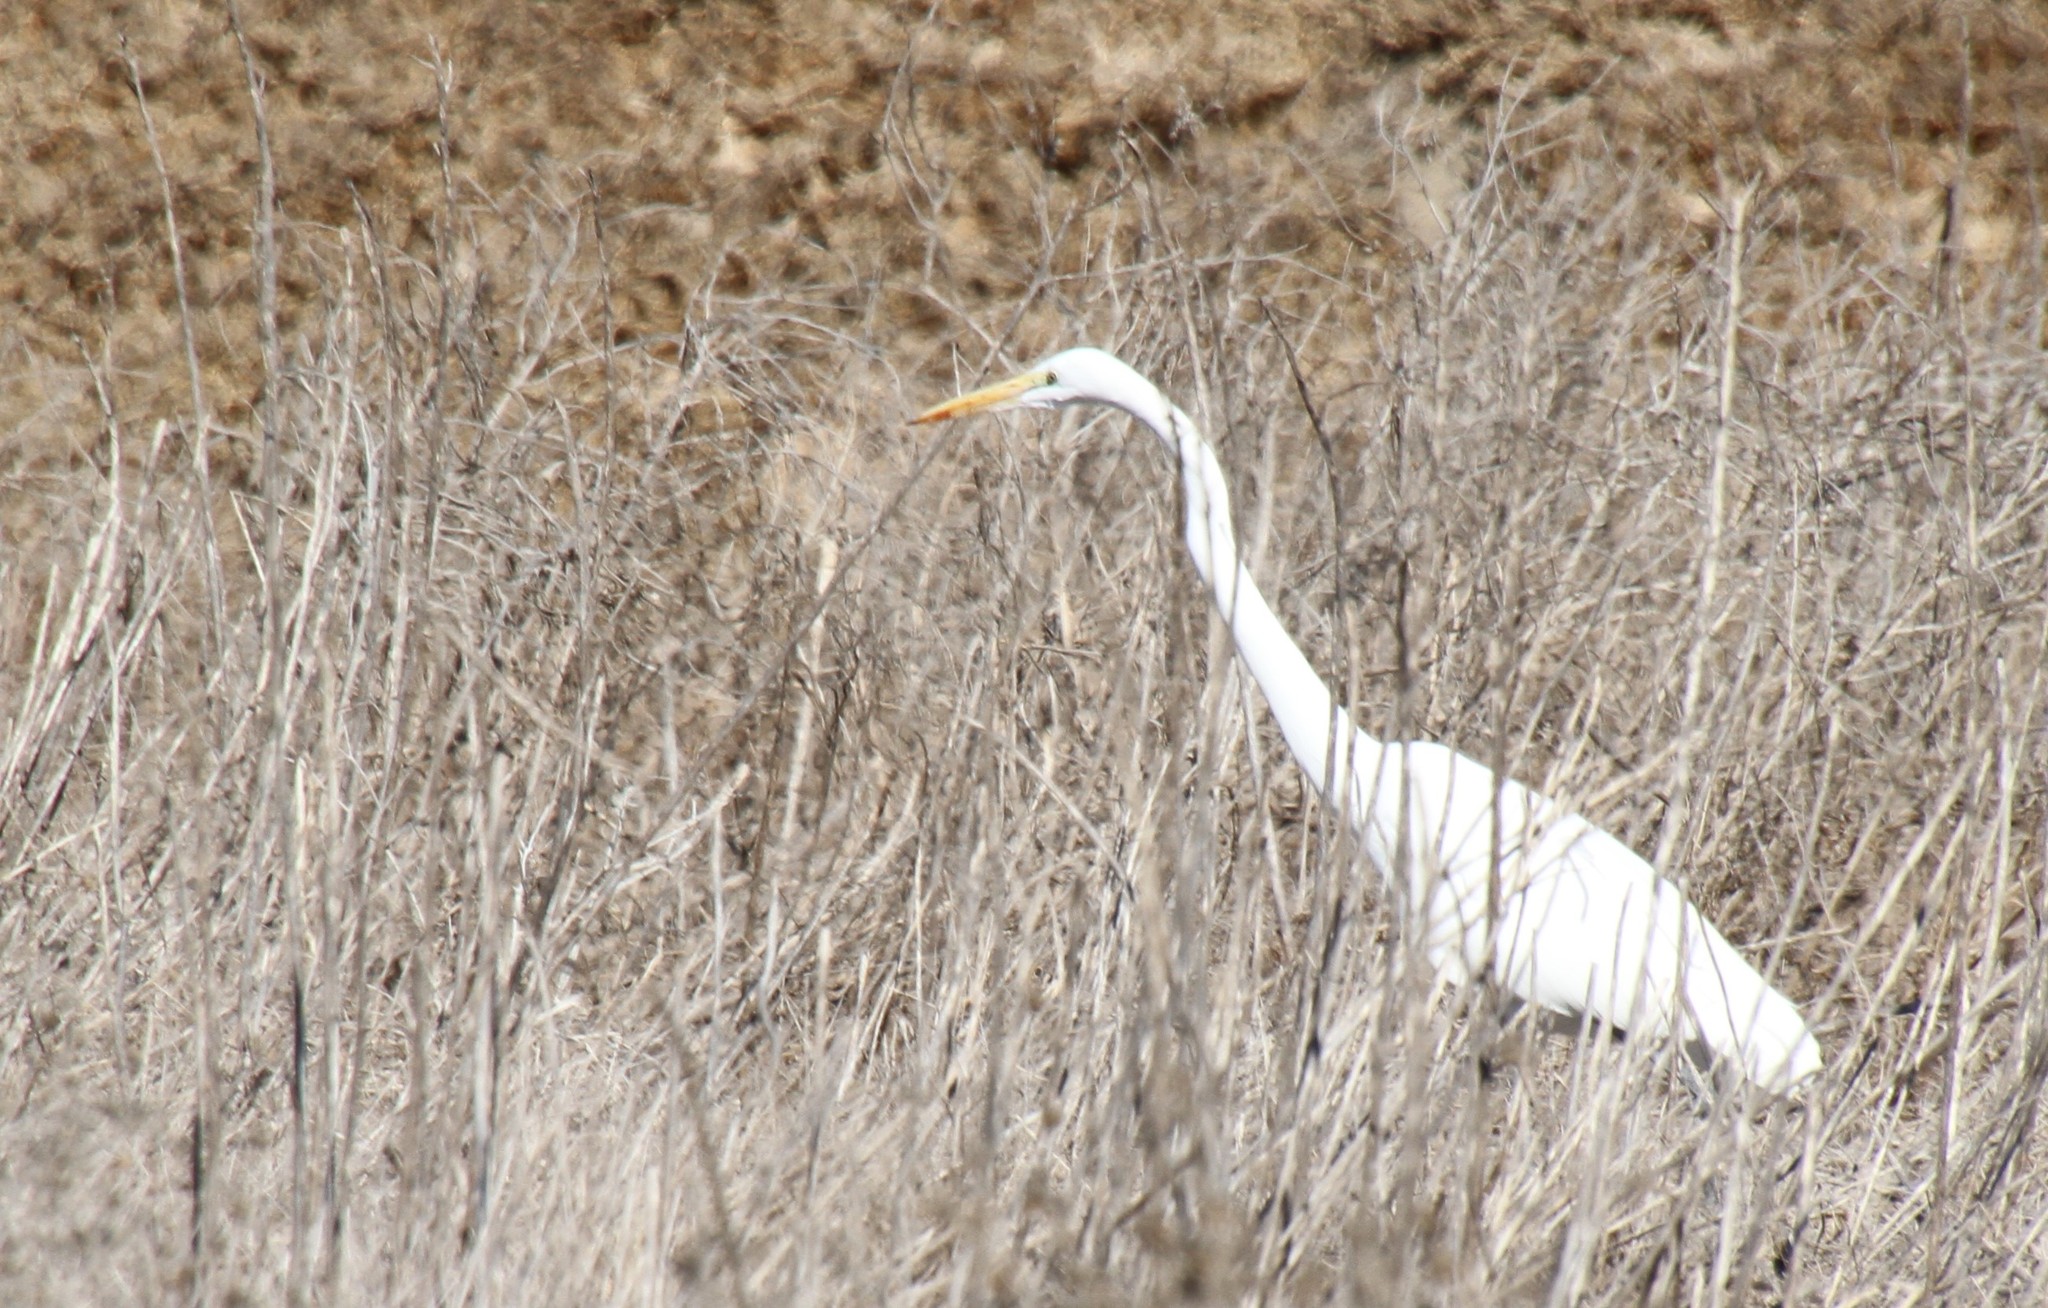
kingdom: Animalia
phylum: Chordata
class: Aves
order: Pelecaniformes
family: Ardeidae
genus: Ardea
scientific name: Ardea alba
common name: Great egret
